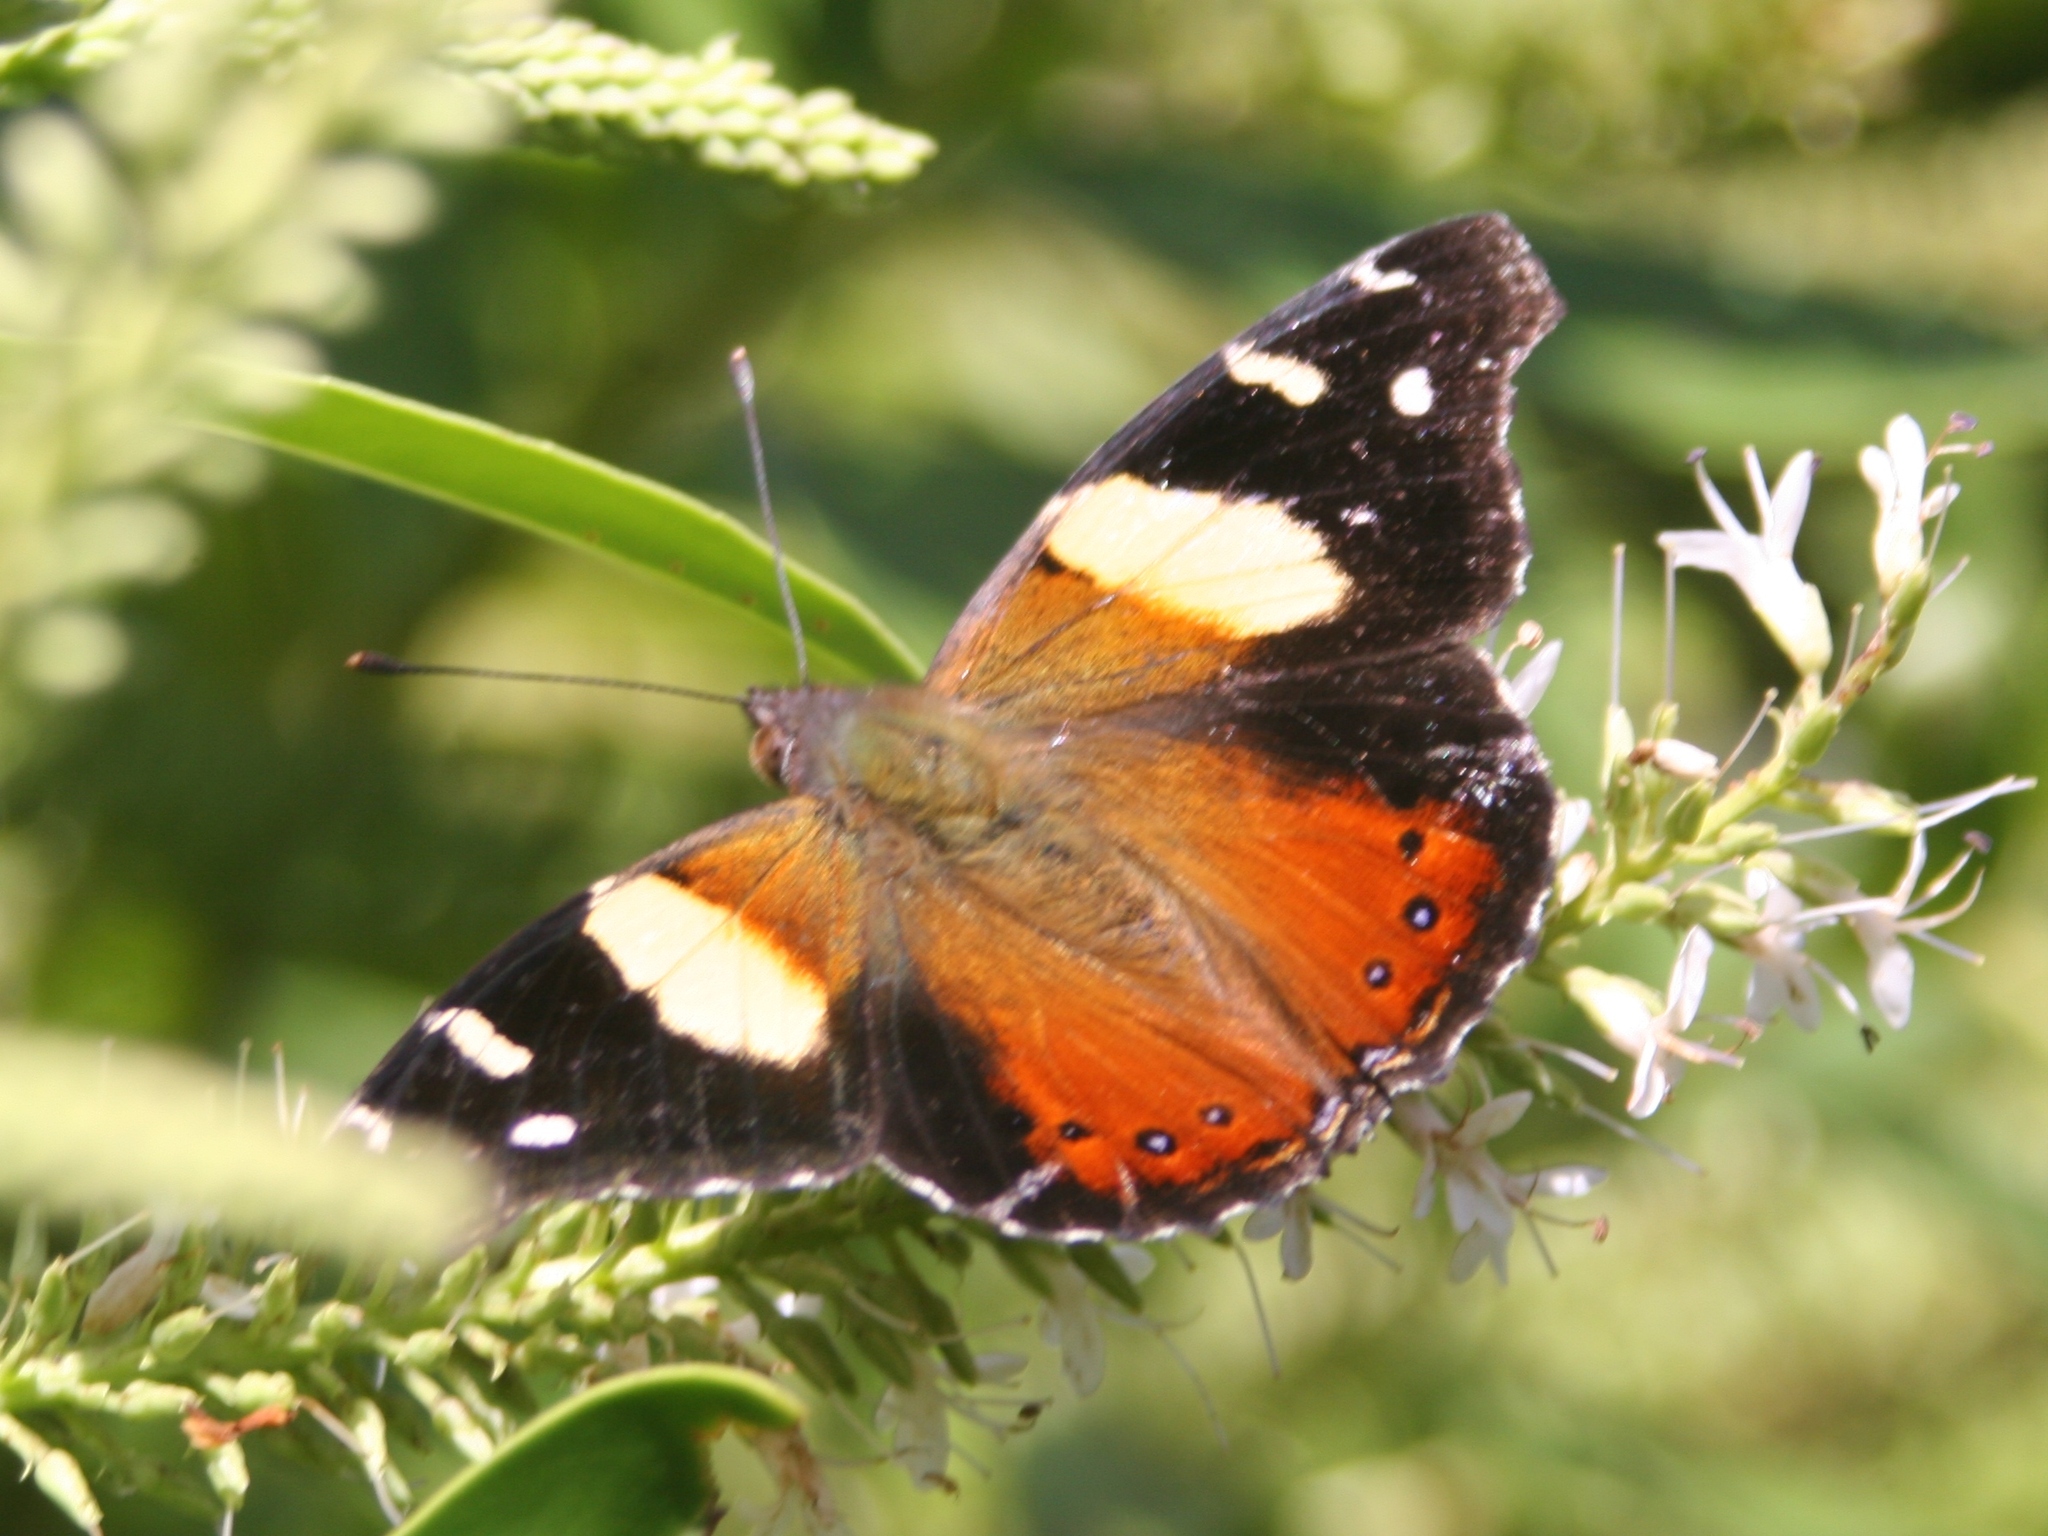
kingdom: Animalia
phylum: Arthropoda
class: Insecta
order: Lepidoptera
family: Nymphalidae
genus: Vanessa
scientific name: Vanessa itea
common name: Yellow admiral
